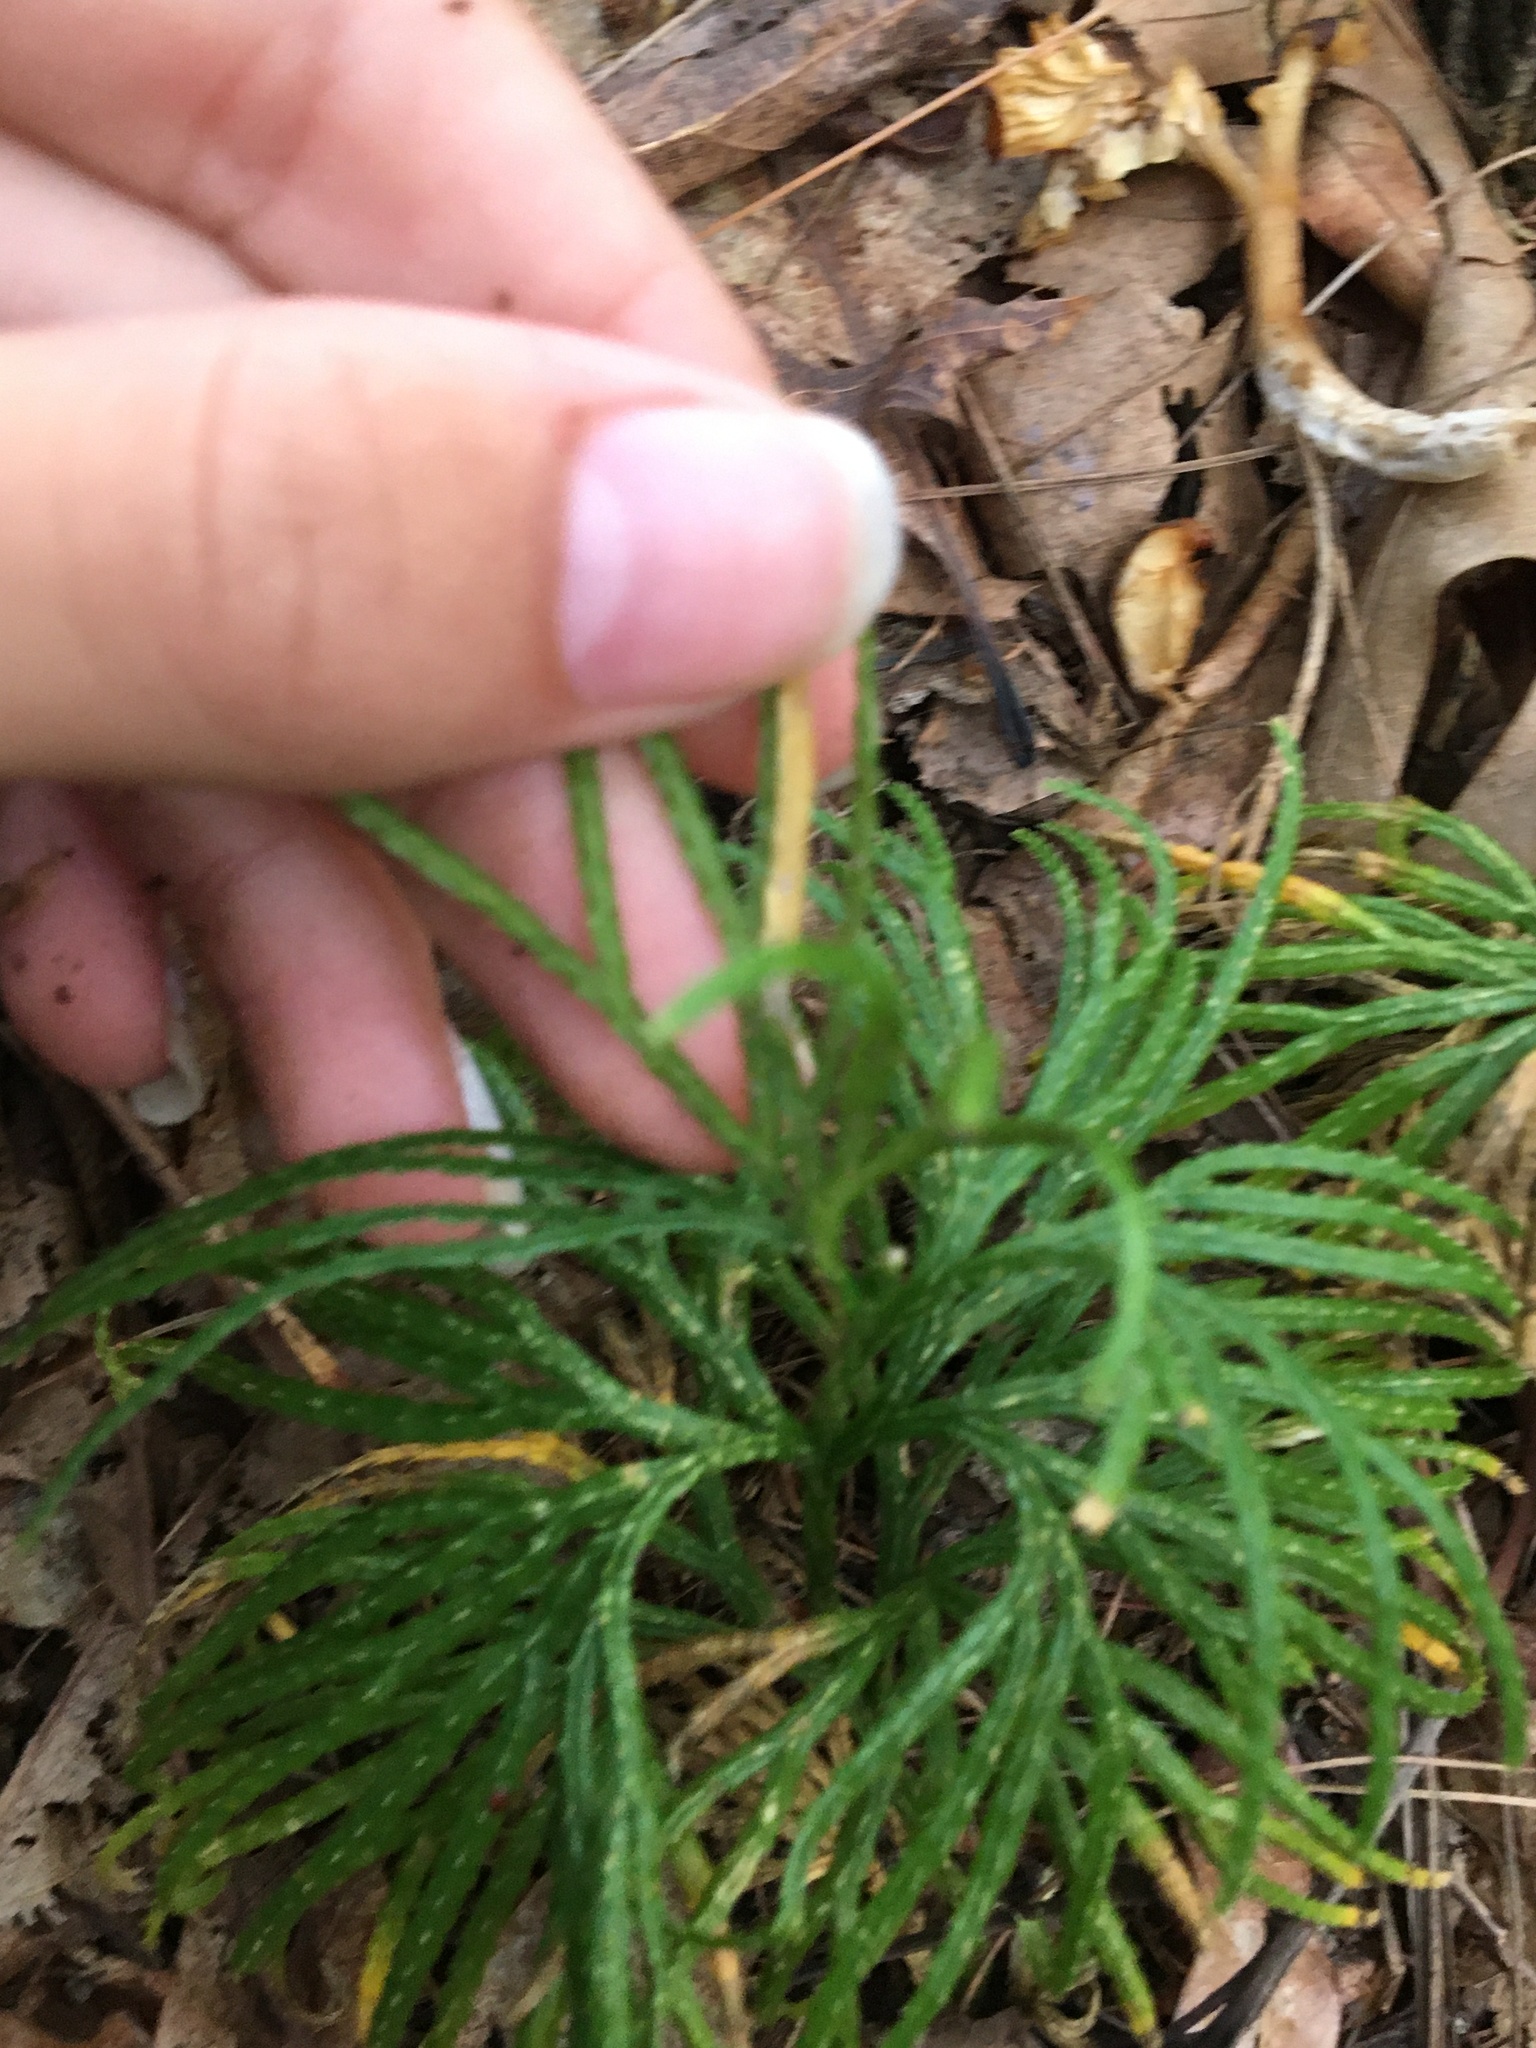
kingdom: Plantae
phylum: Tracheophyta
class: Lycopodiopsida
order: Lycopodiales
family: Lycopodiaceae
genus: Diphasiastrum
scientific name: Diphasiastrum digitatum
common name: Southern running-pine
